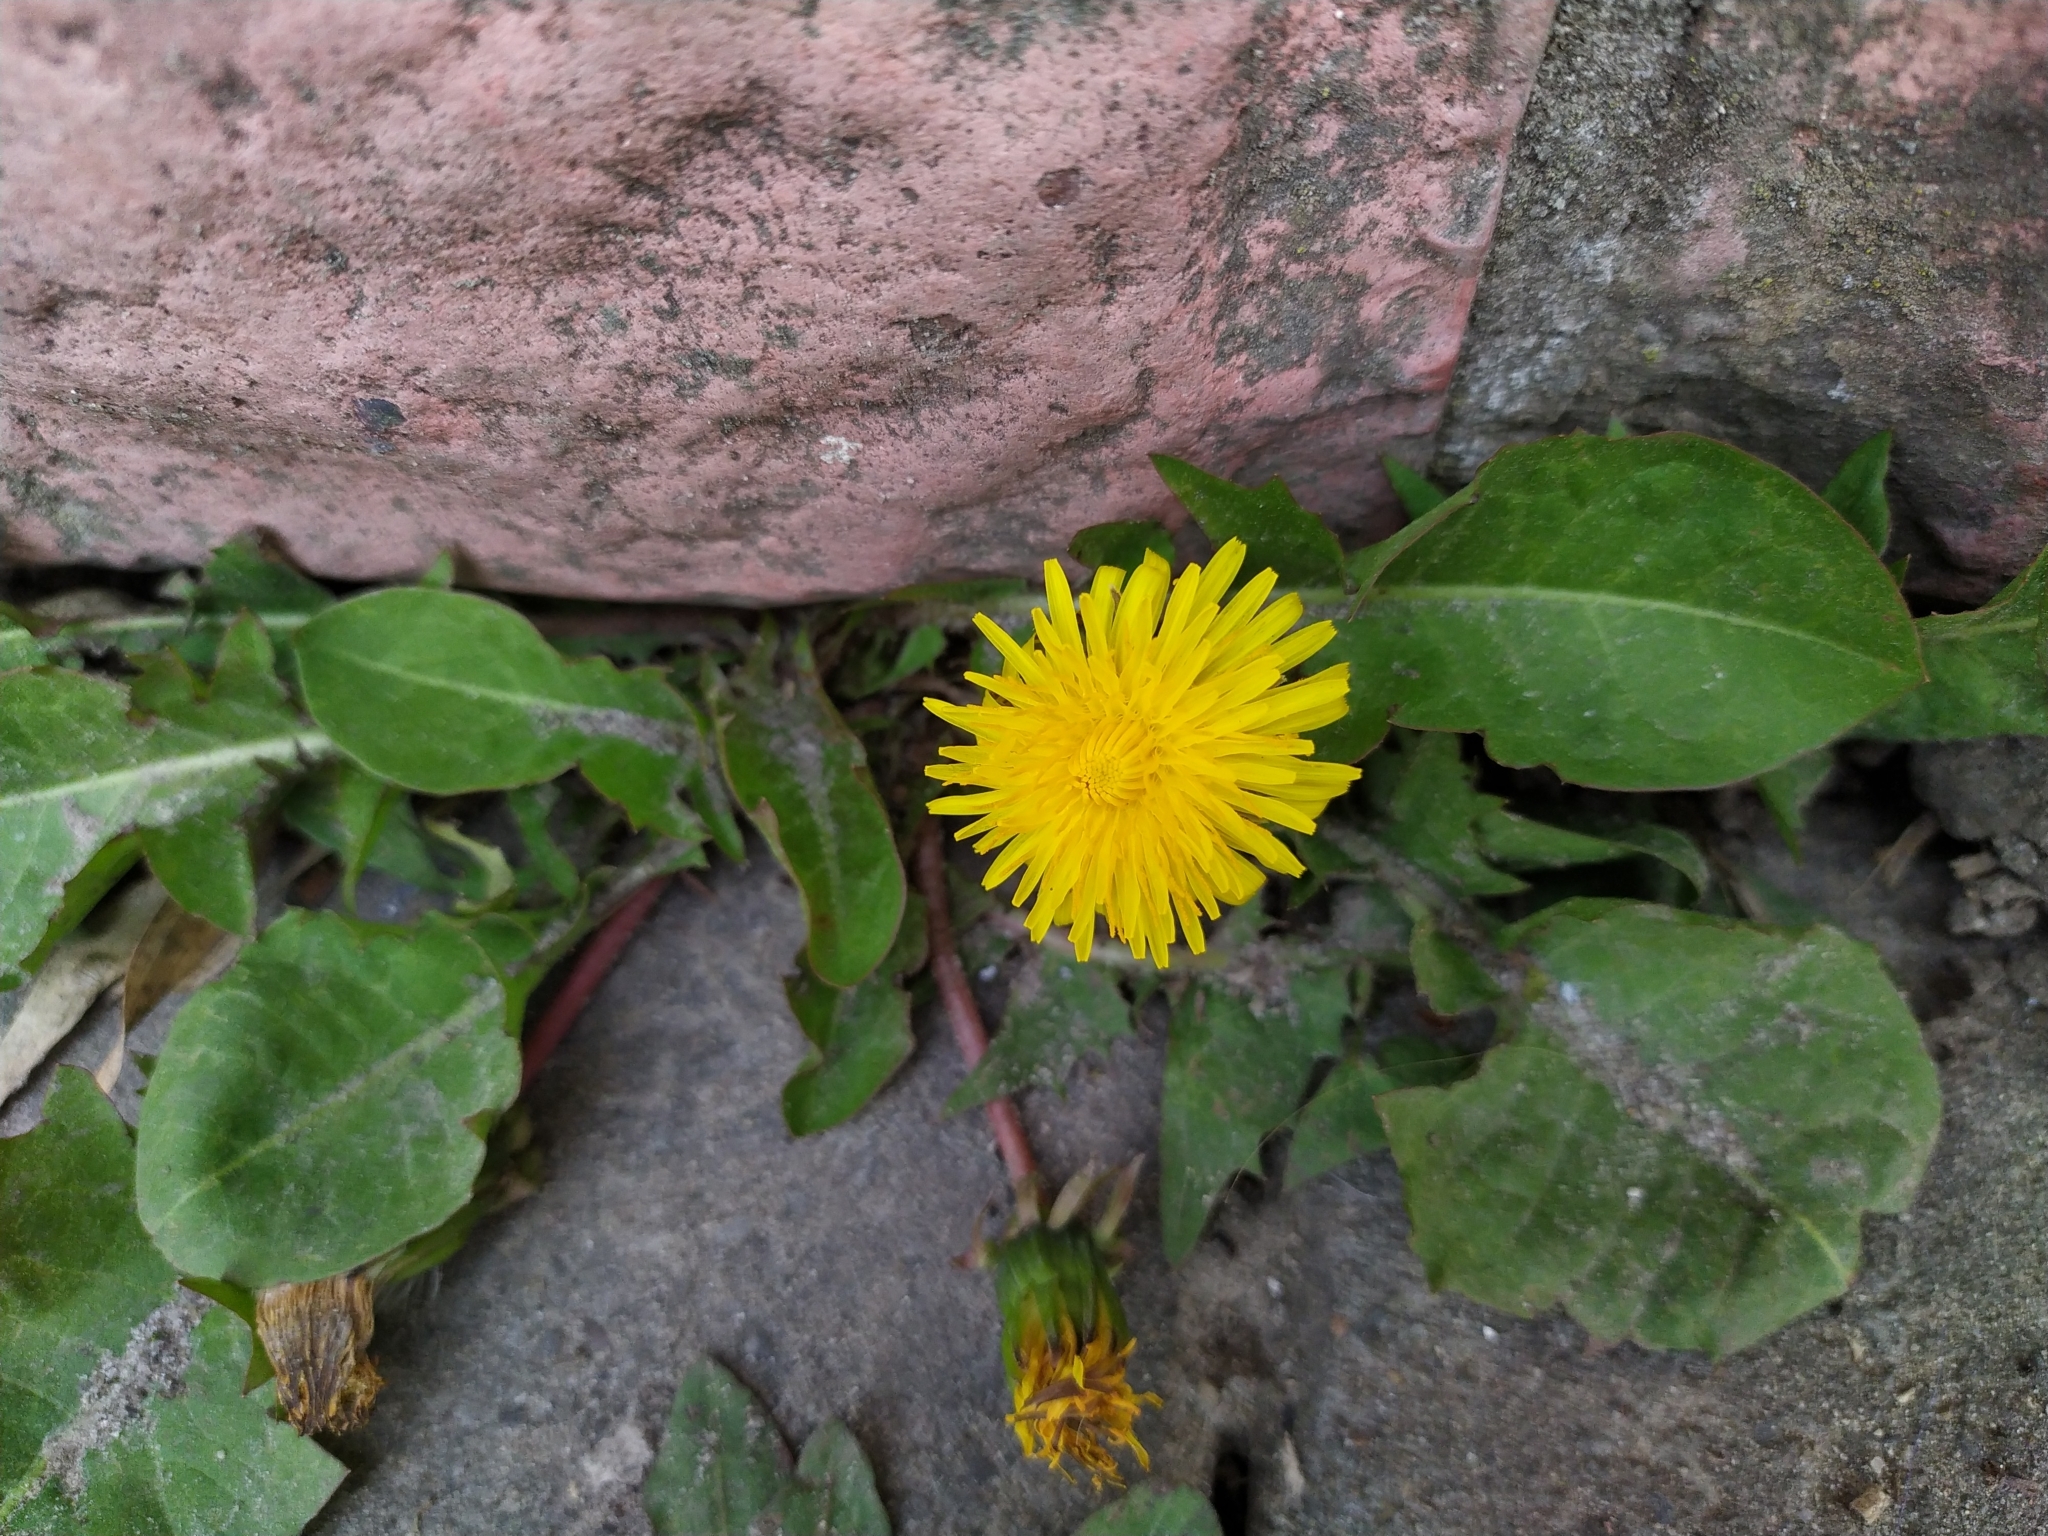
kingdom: Plantae
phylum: Tracheophyta
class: Magnoliopsida
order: Asterales
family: Asteraceae
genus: Taraxacum
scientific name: Taraxacum officinale
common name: Common dandelion
